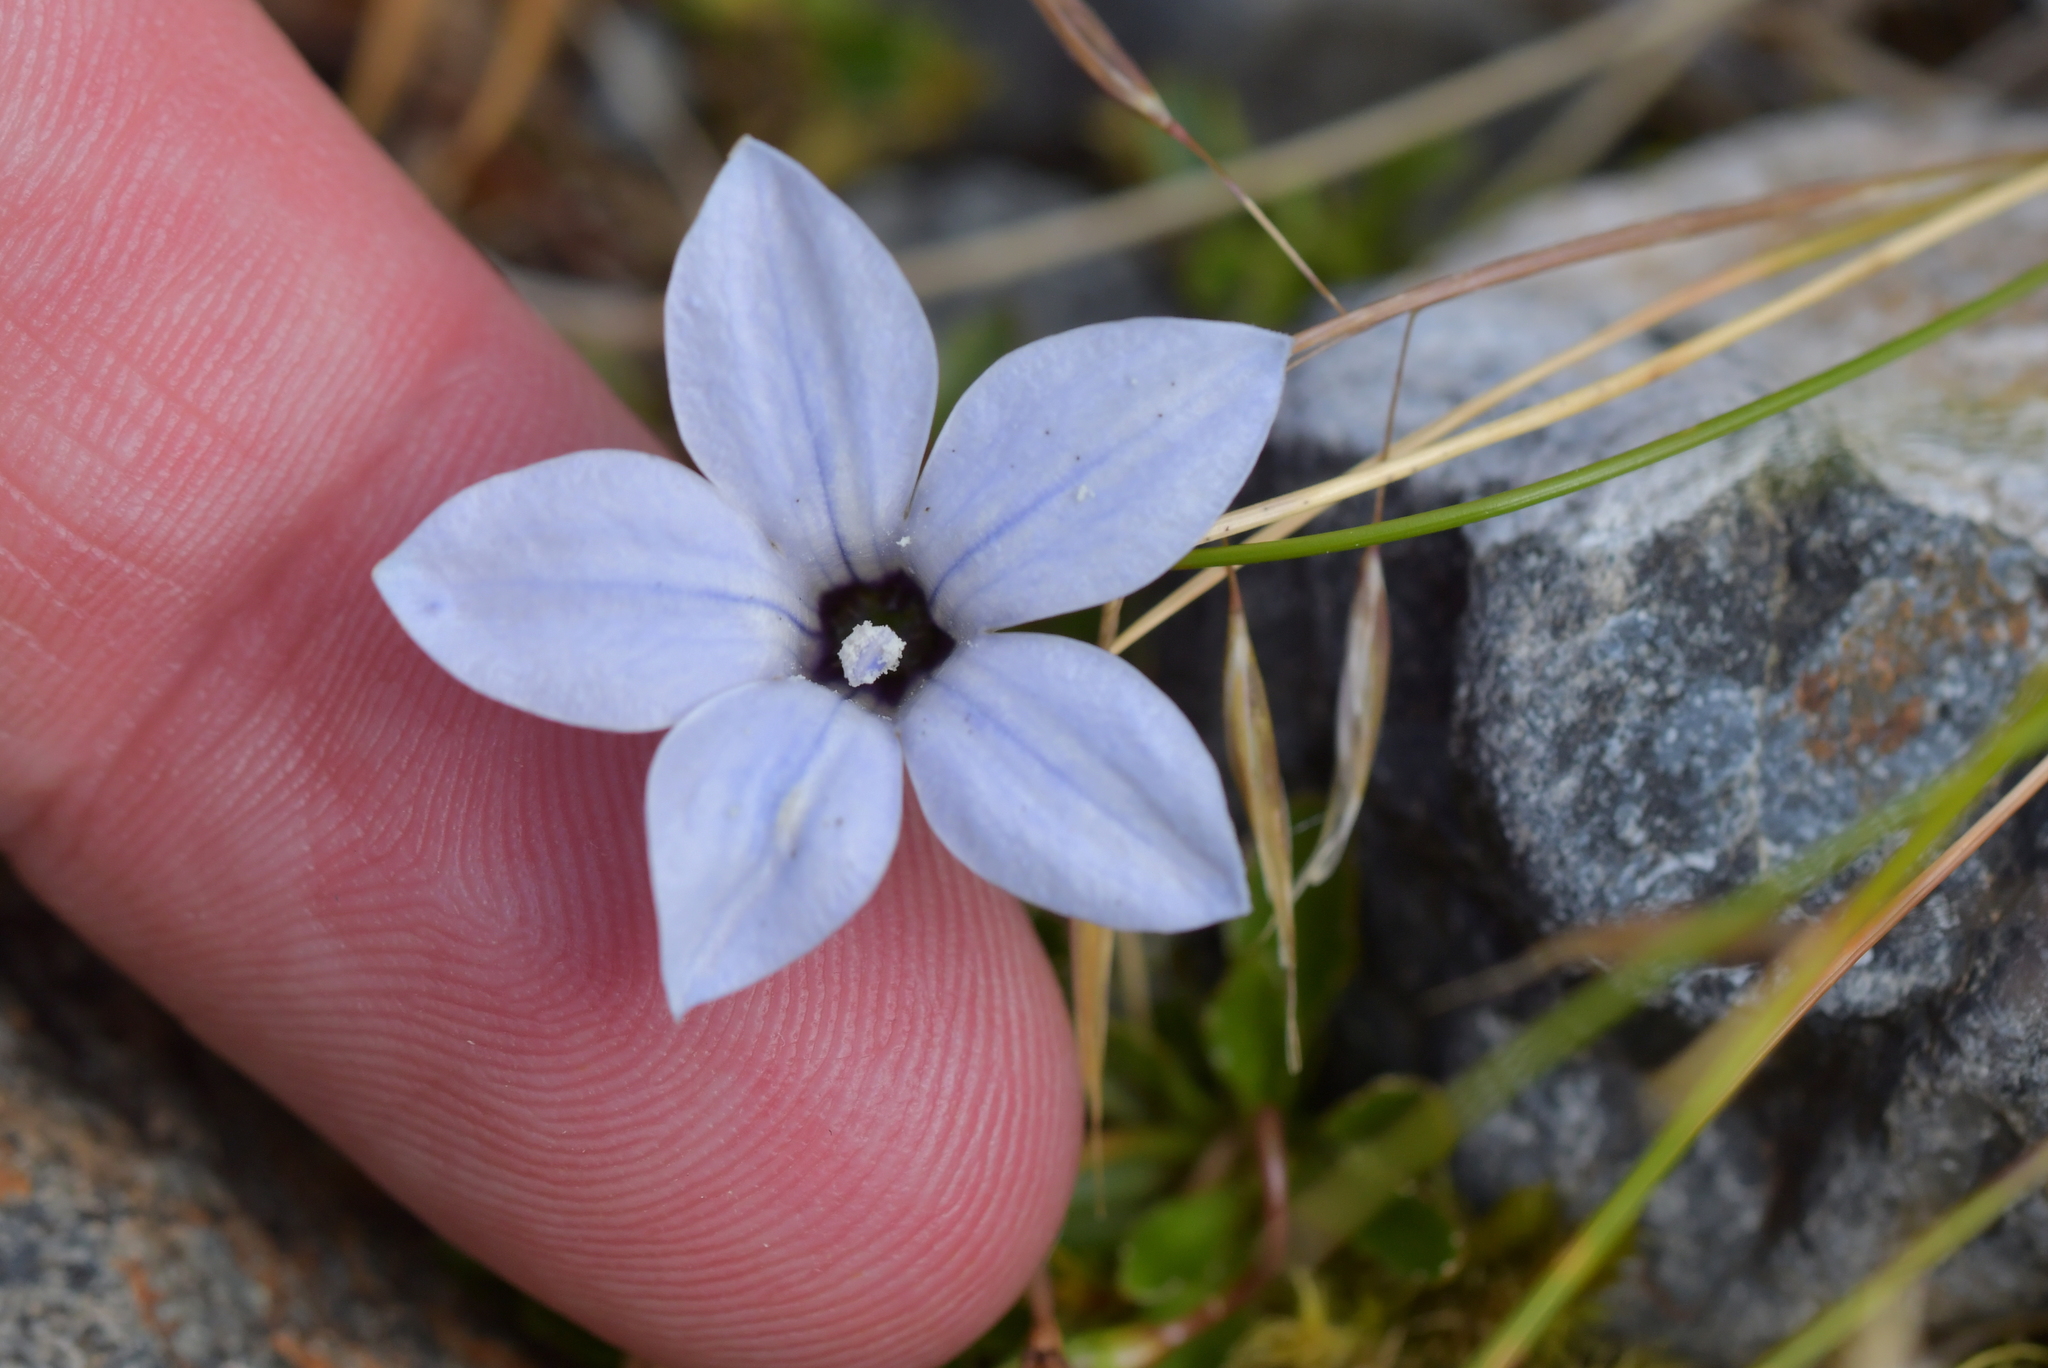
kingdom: Plantae
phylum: Tracheophyta
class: Magnoliopsida
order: Asterales
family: Campanulaceae
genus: Wahlenbergia
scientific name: Wahlenbergia albomarginata
